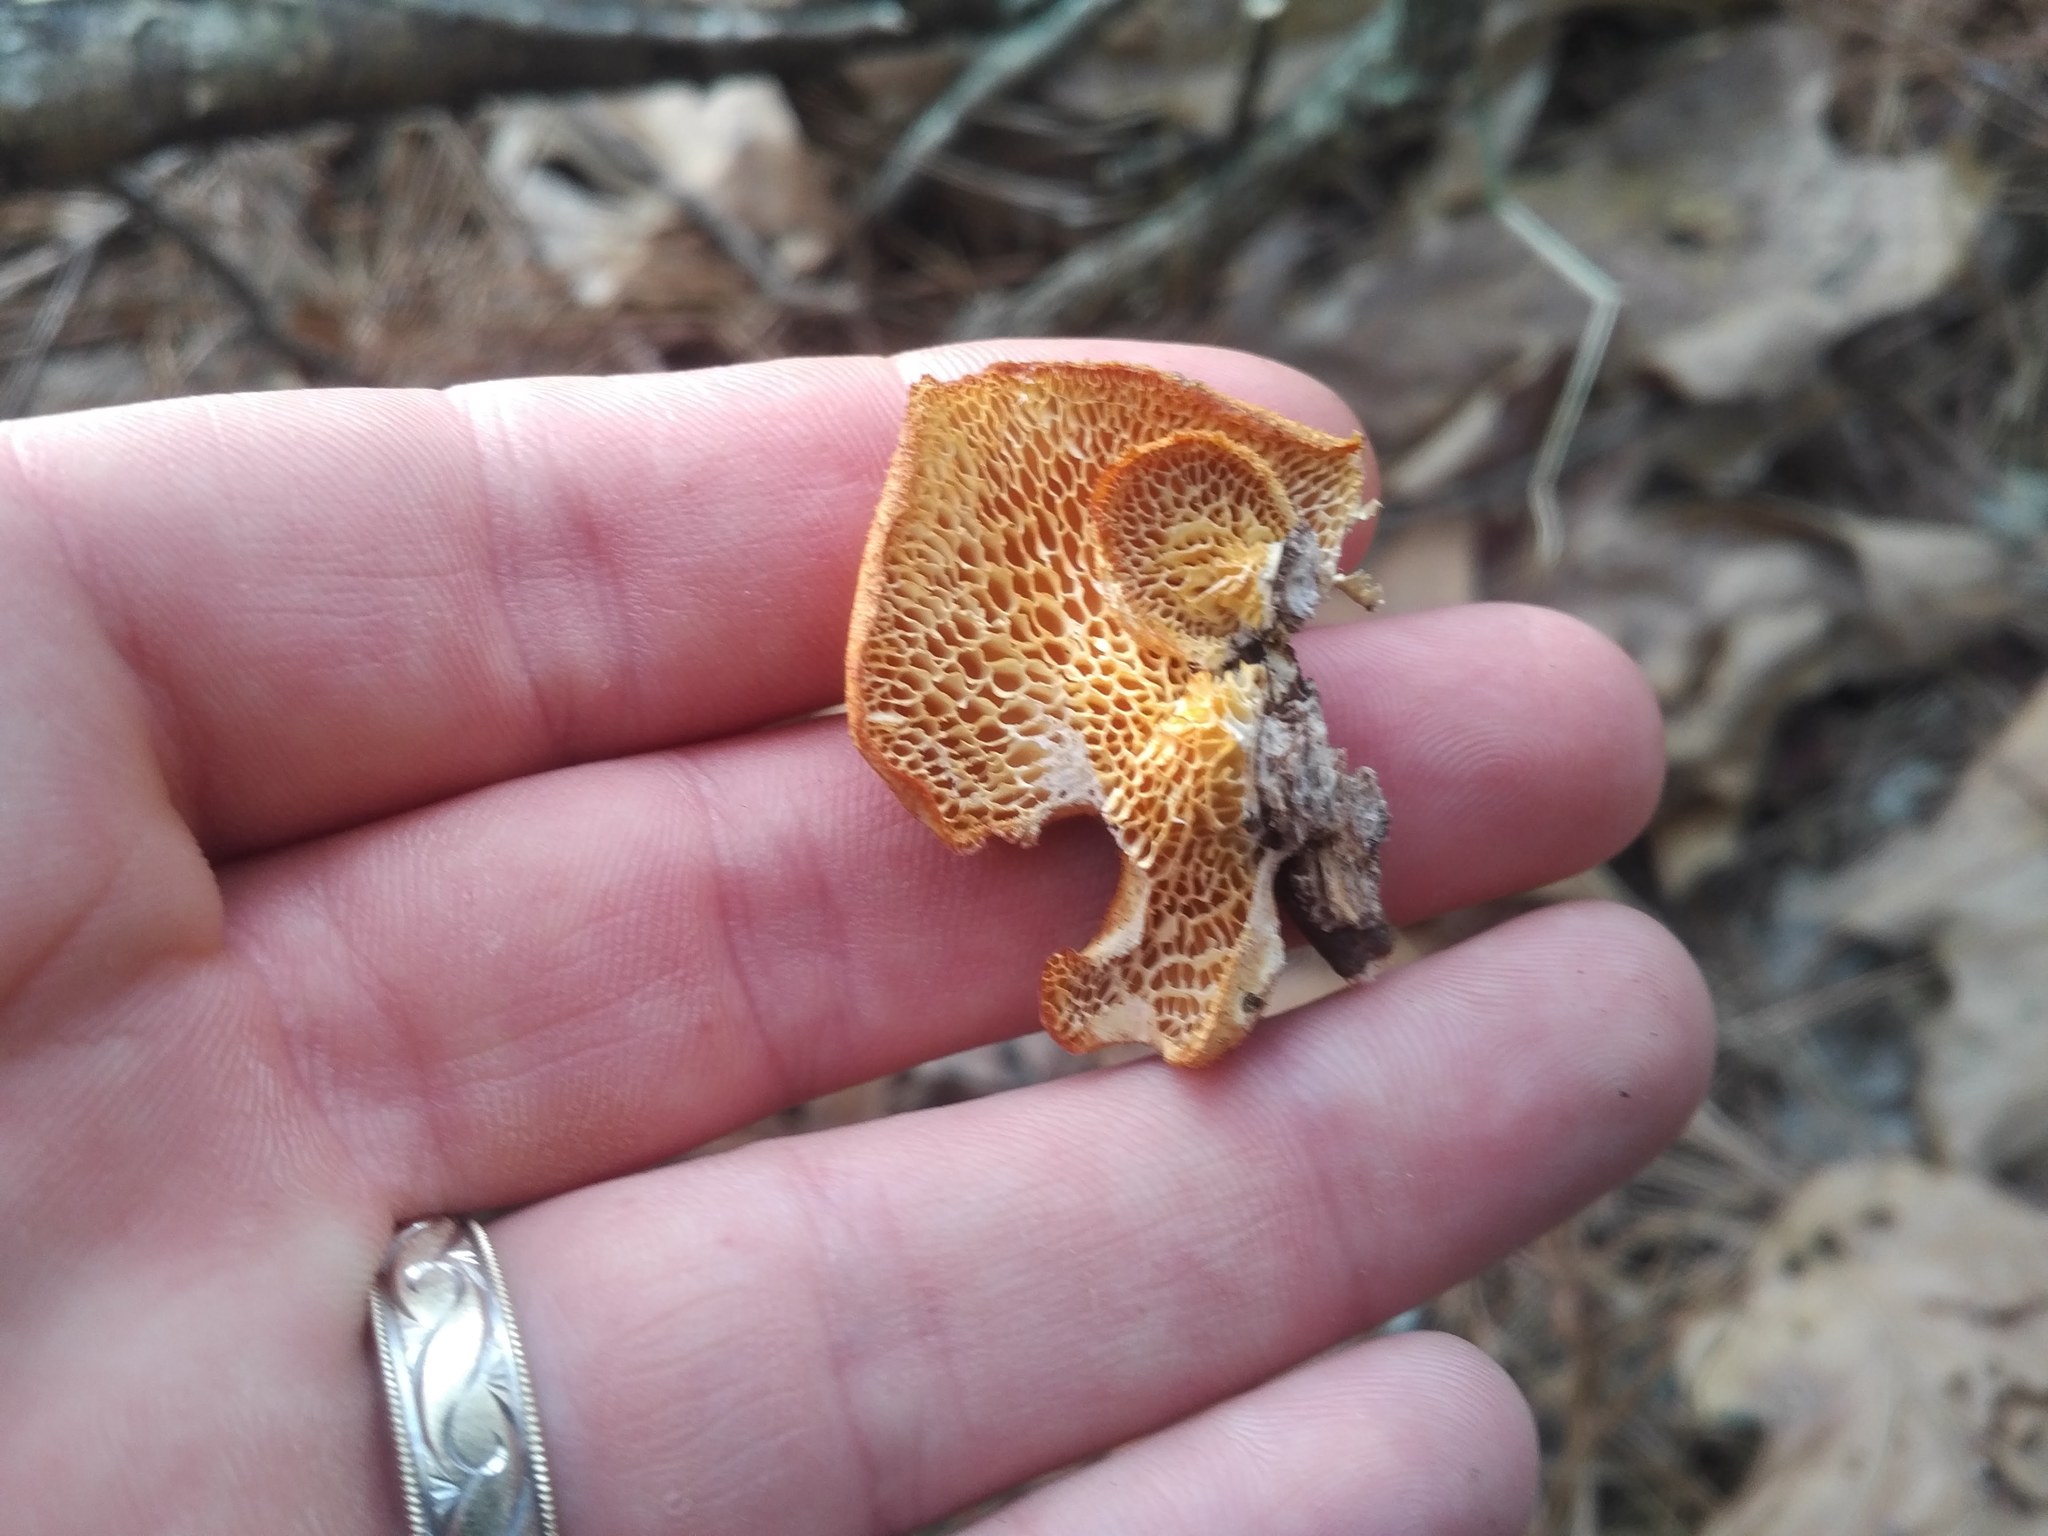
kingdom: Fungi
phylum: Basidiomycota
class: Agaricomycetes
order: Polyporales
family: Polyporaceae
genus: Neofavolus
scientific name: Neofavolus alveolaris
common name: Hexagonal-pored polypore
